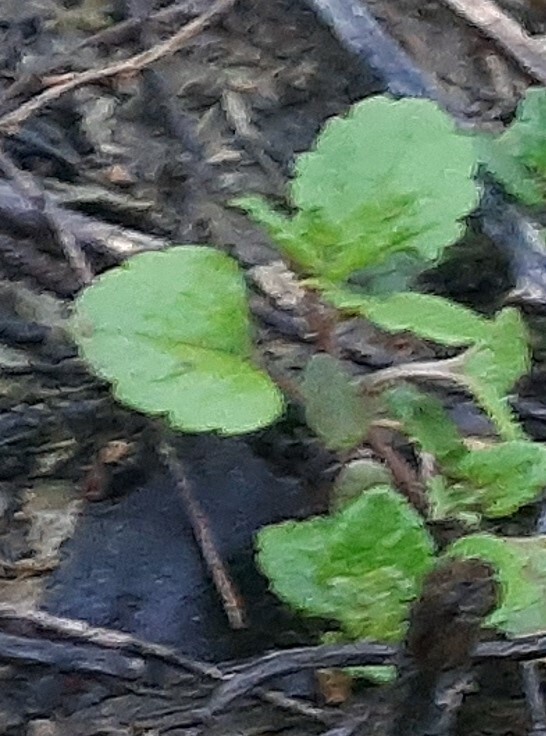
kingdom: Plantae
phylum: Tracheophyta
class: Magnoliopsida
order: Lamiales
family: Plantaginaceae
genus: Veronica
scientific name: Veronica persica
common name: Common field-speedwell
